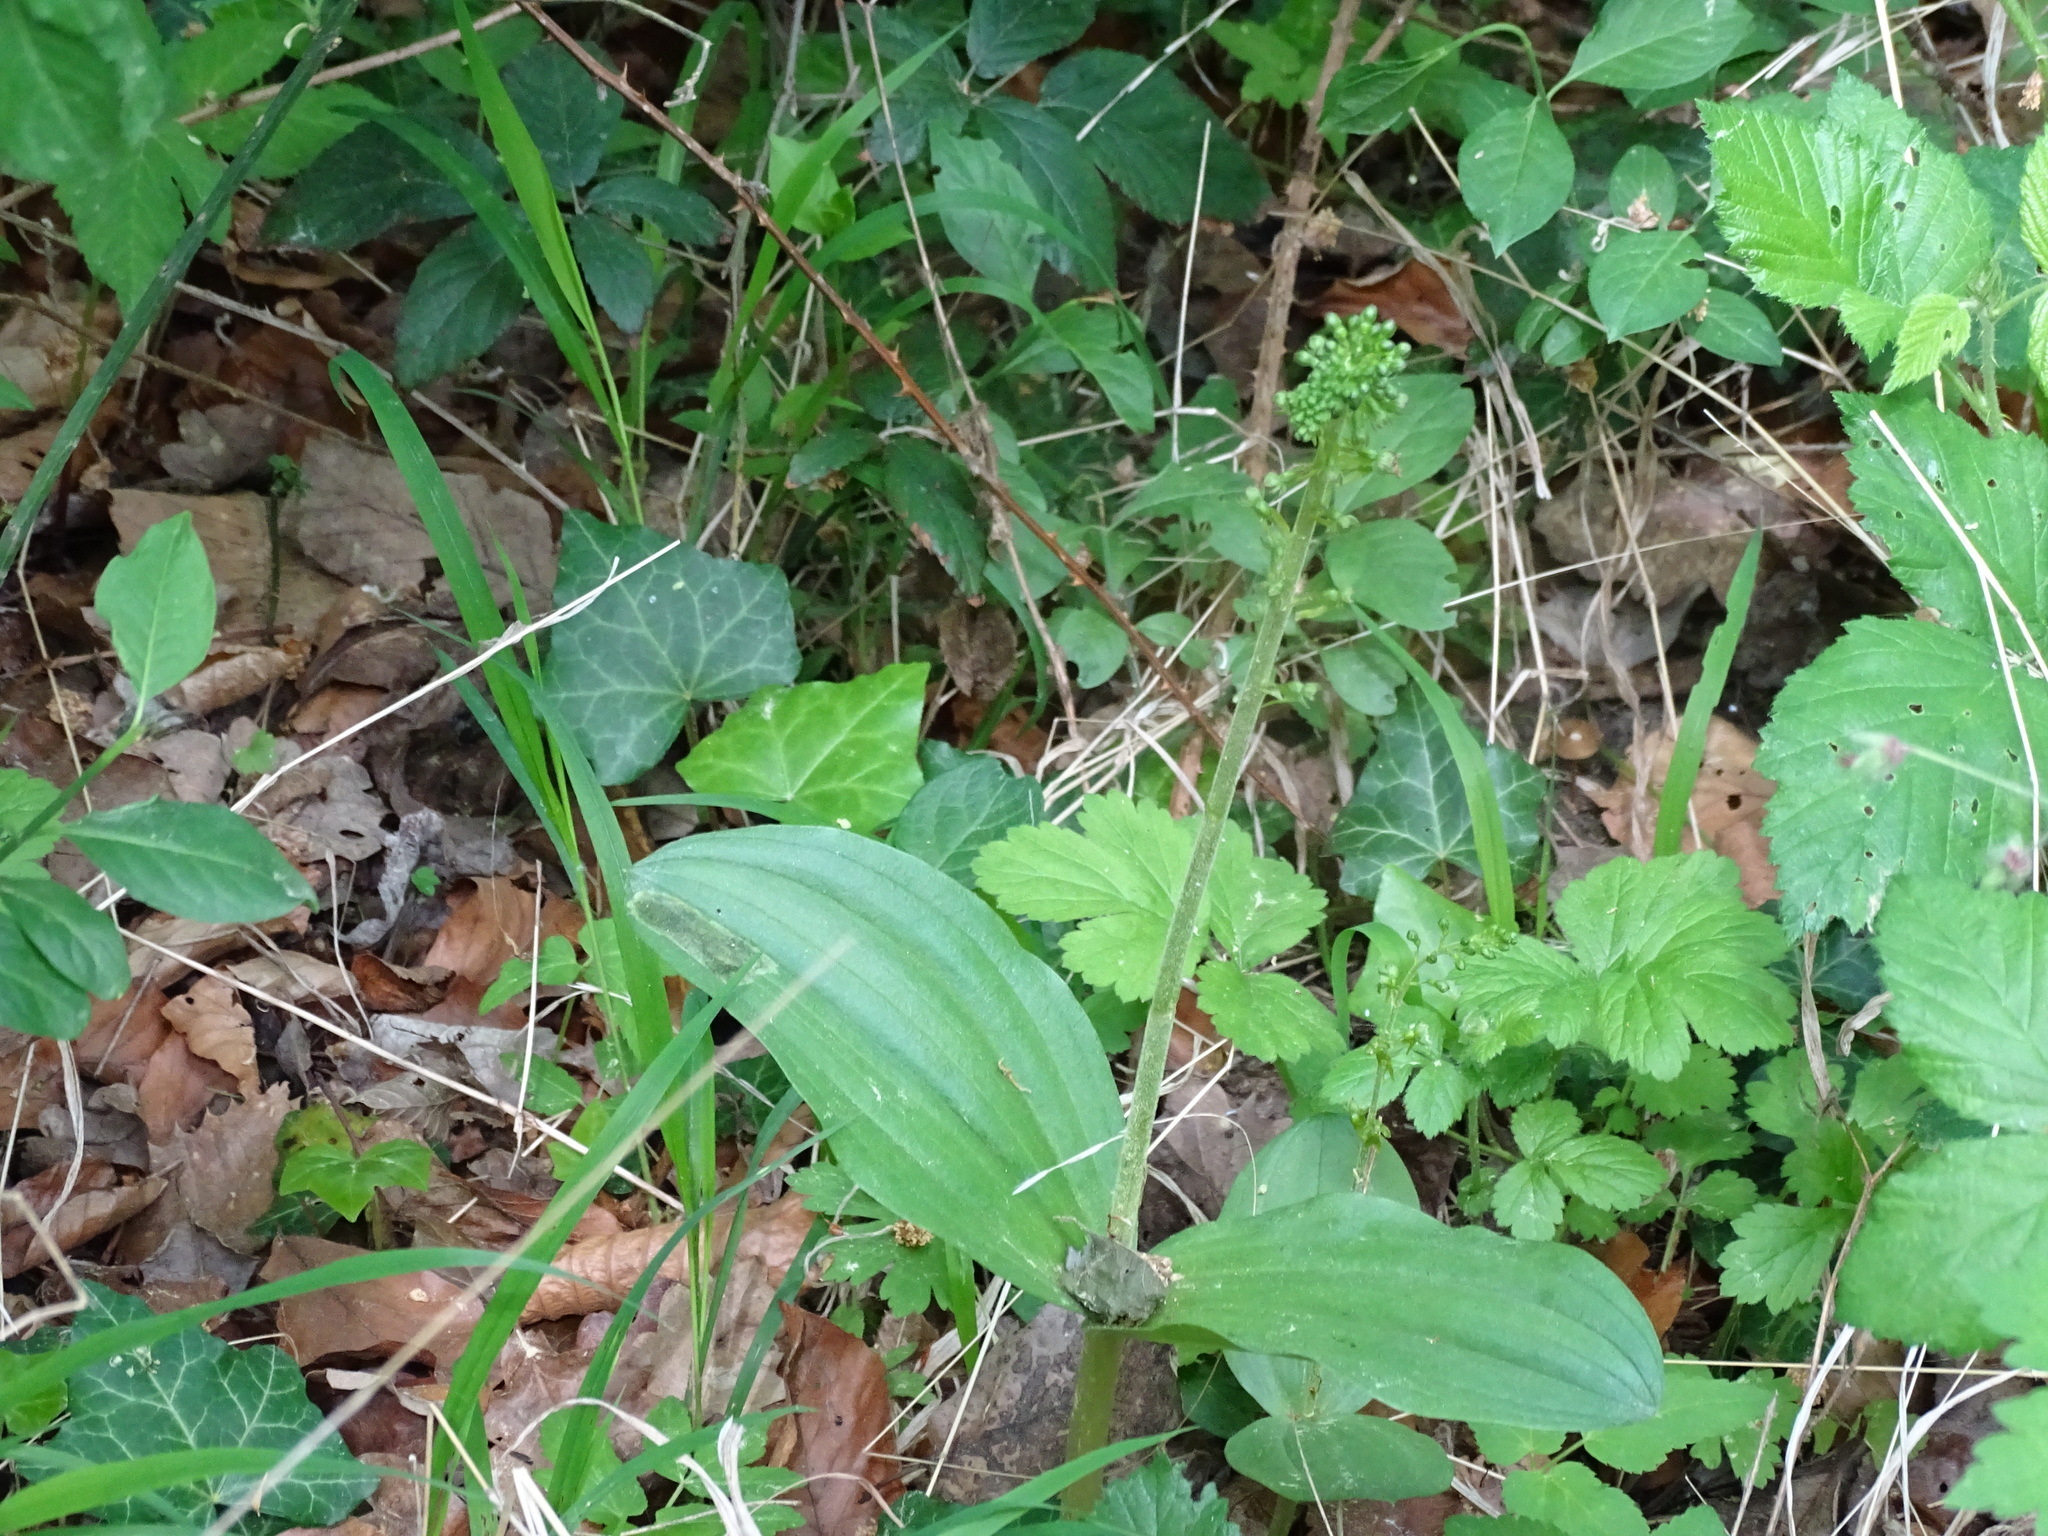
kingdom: Plantae
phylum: Tracheophyta
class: Liliopsida
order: Asparagales
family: Orchidaceae
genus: Neottia
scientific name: Neottia ovata
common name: Common twayblade
